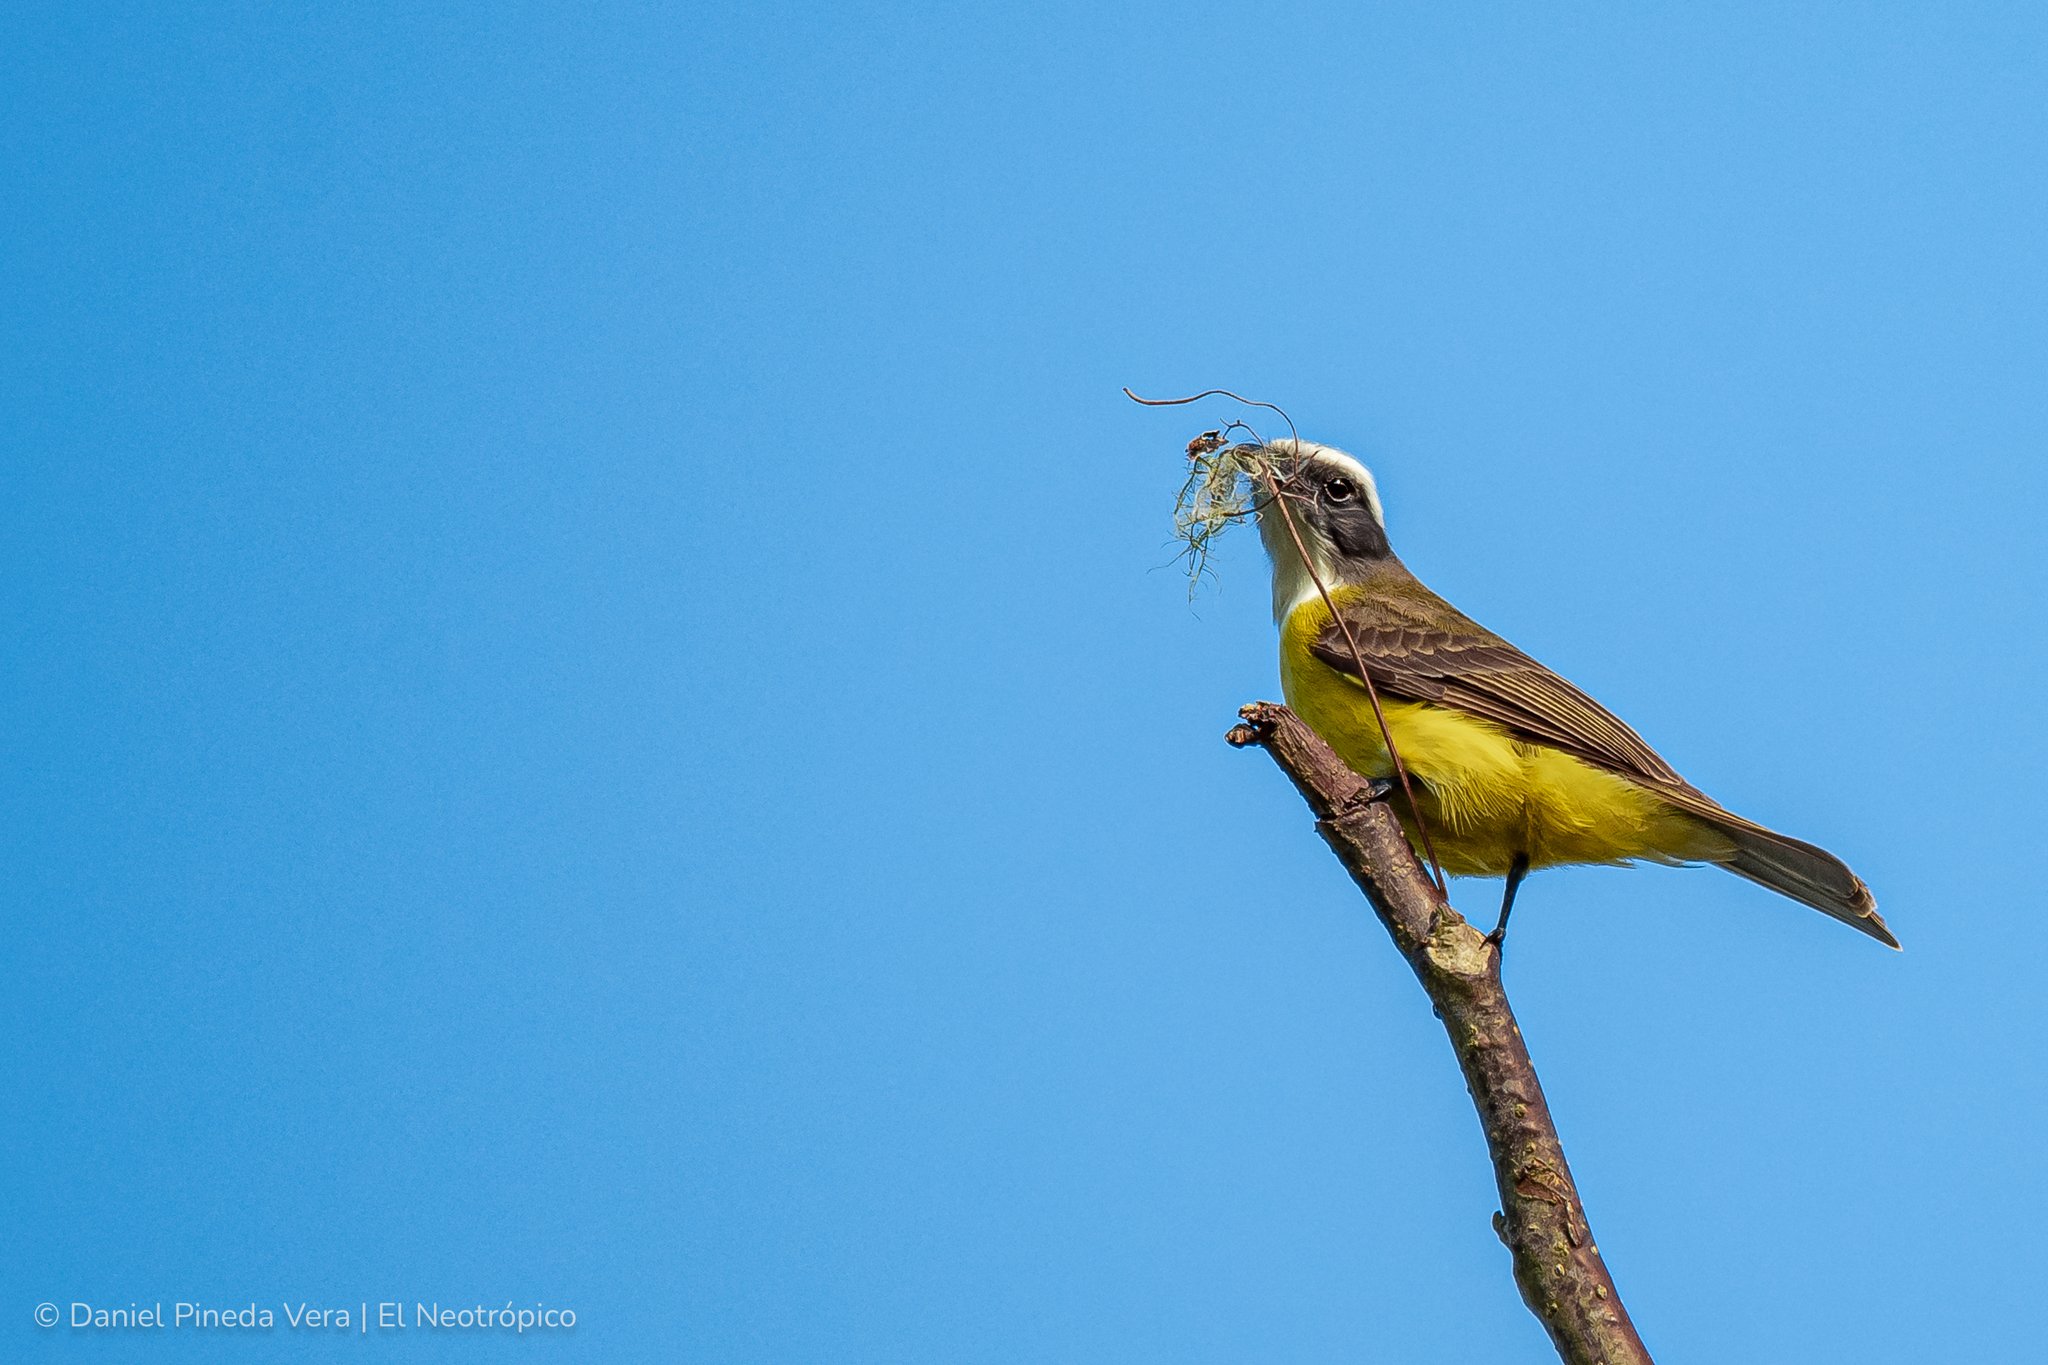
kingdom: Animalia
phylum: Chordata
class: Aves
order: Passeriformes
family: Tyrannidae
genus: Myiozetetes
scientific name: Myiozetetes similis
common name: Social flycatcher
